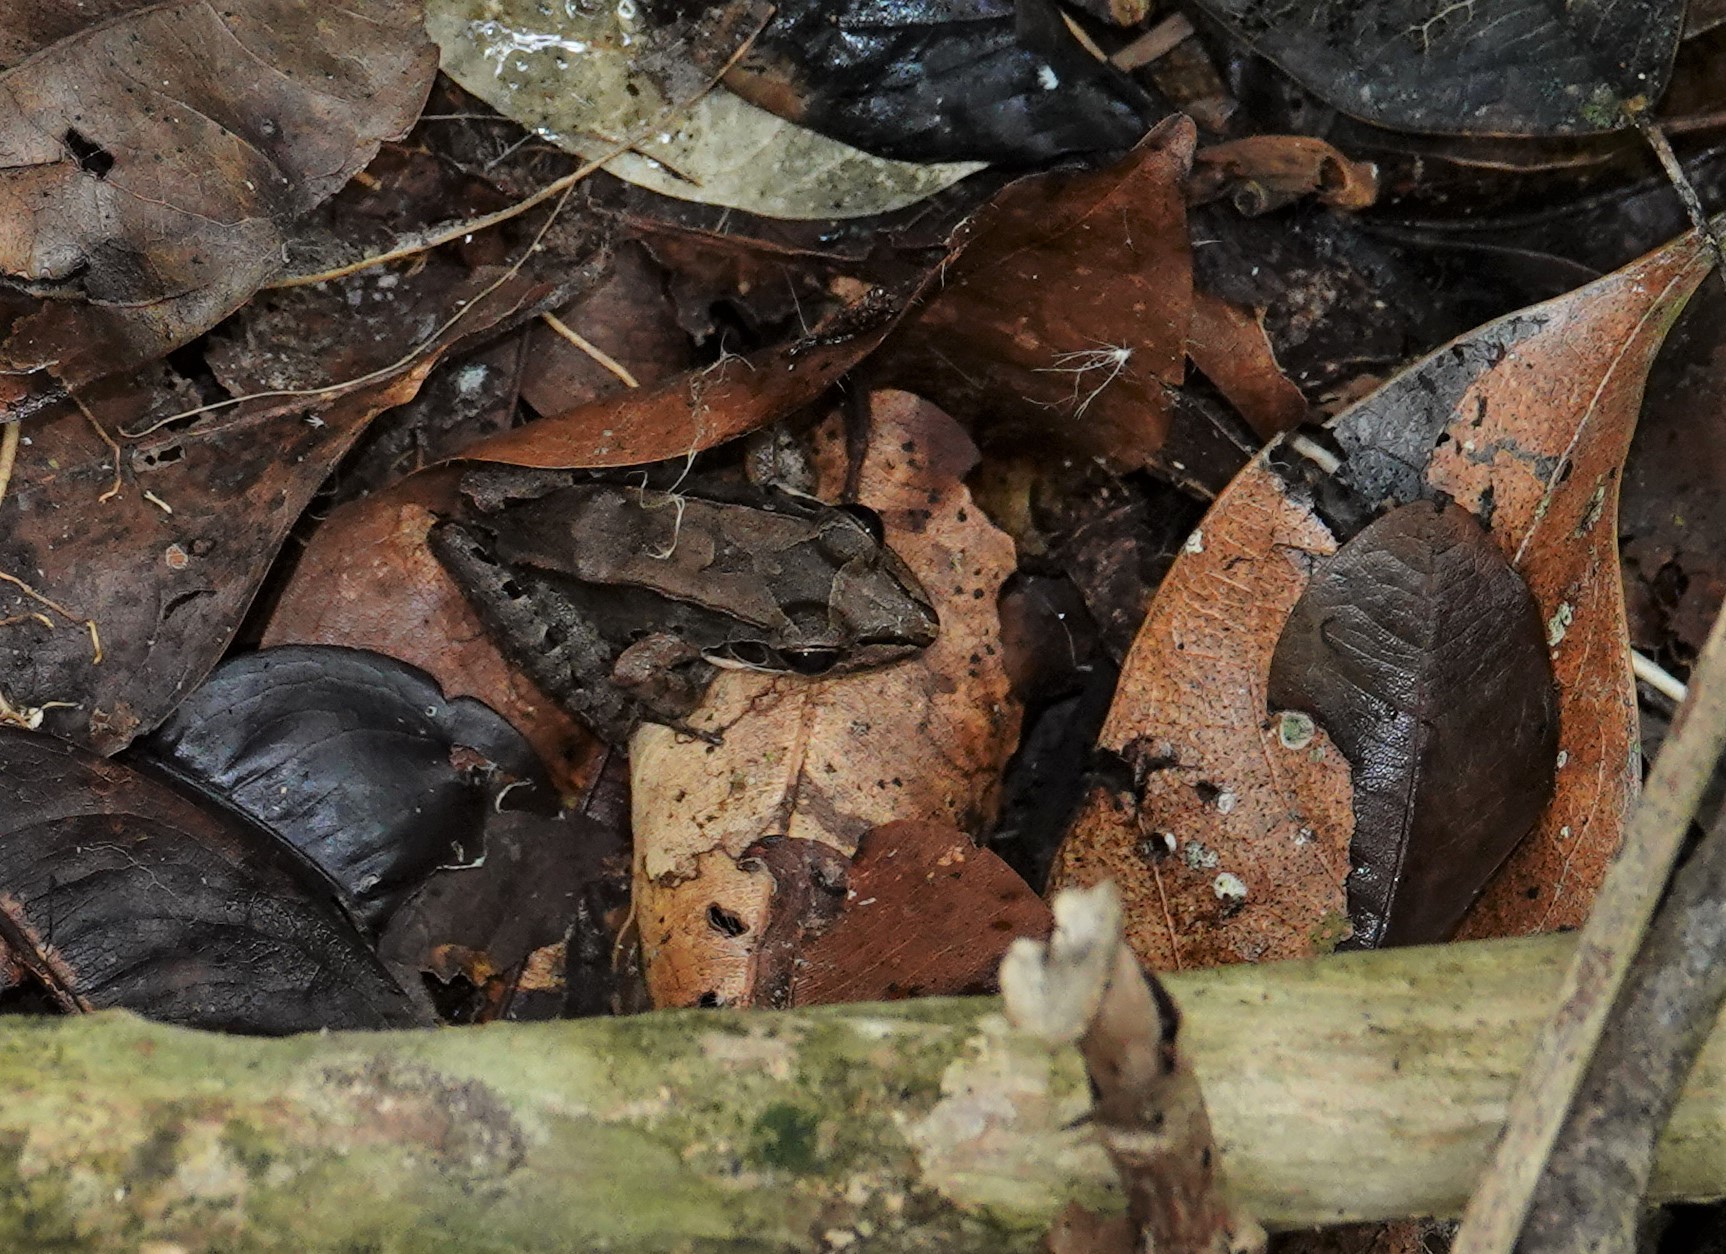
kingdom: Animalia
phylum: Chordata
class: Amphibia
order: Anura
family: Leptodactylidae
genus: Leptodactylus
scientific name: Leptodactylus guianensis
